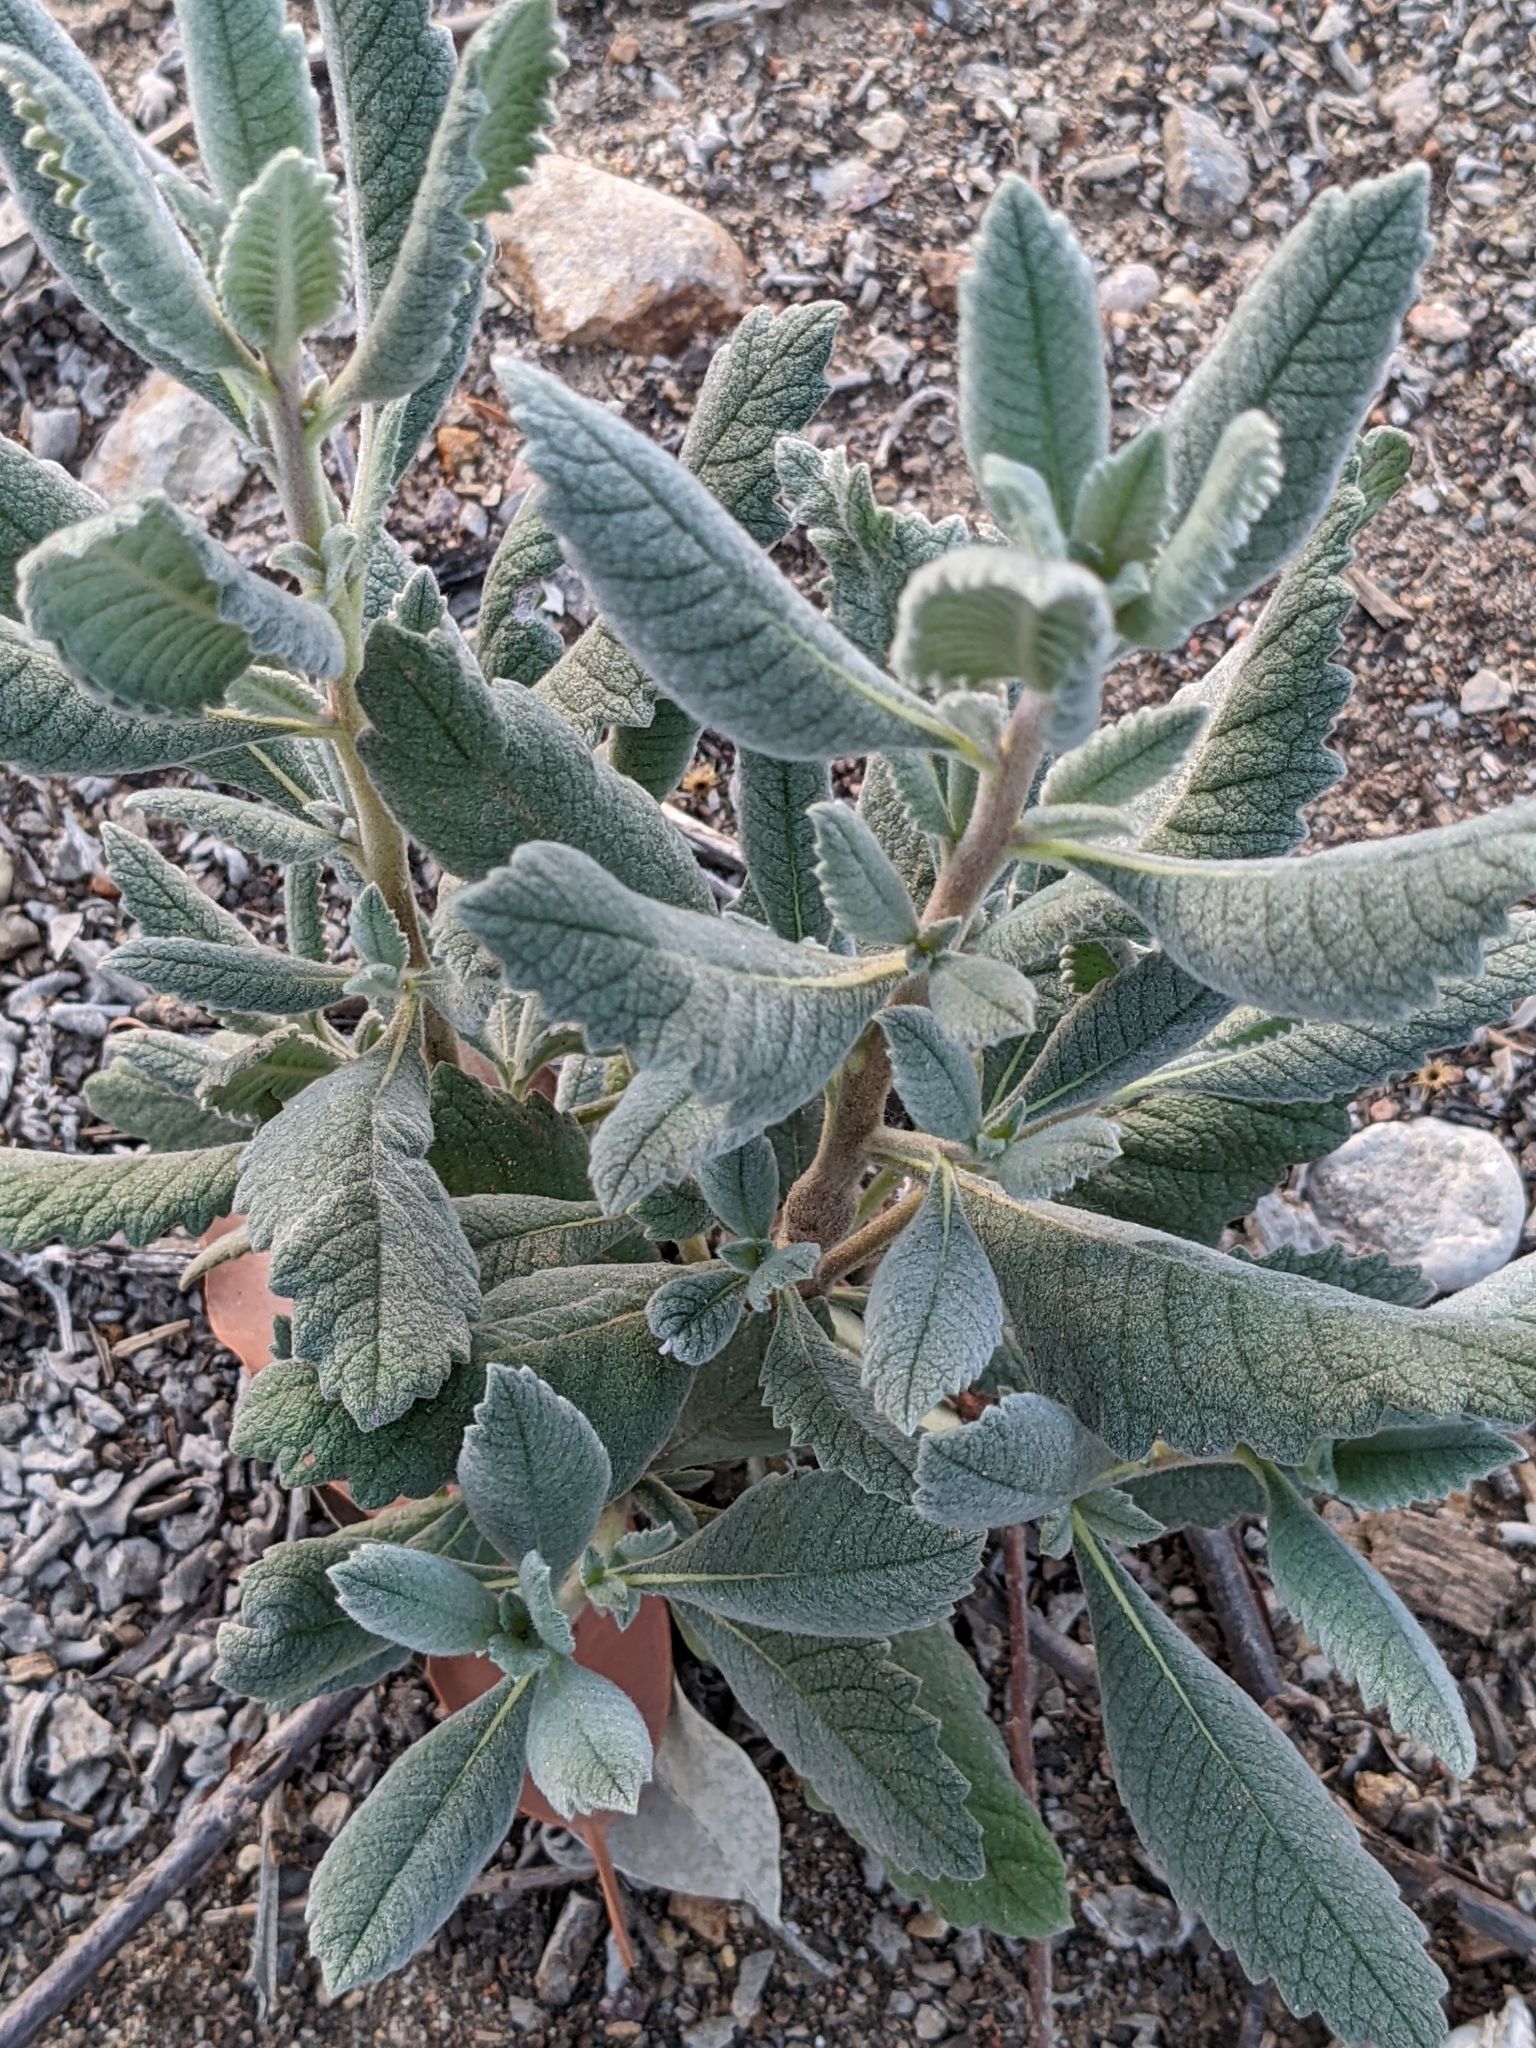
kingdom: Plantae
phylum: Tracheophyta
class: Magnoliopsida
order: Boraginales
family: Namaceae
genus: Eriodictyon
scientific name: Eriodictyon crassifolium
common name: Thick-leaf yerba-santa
